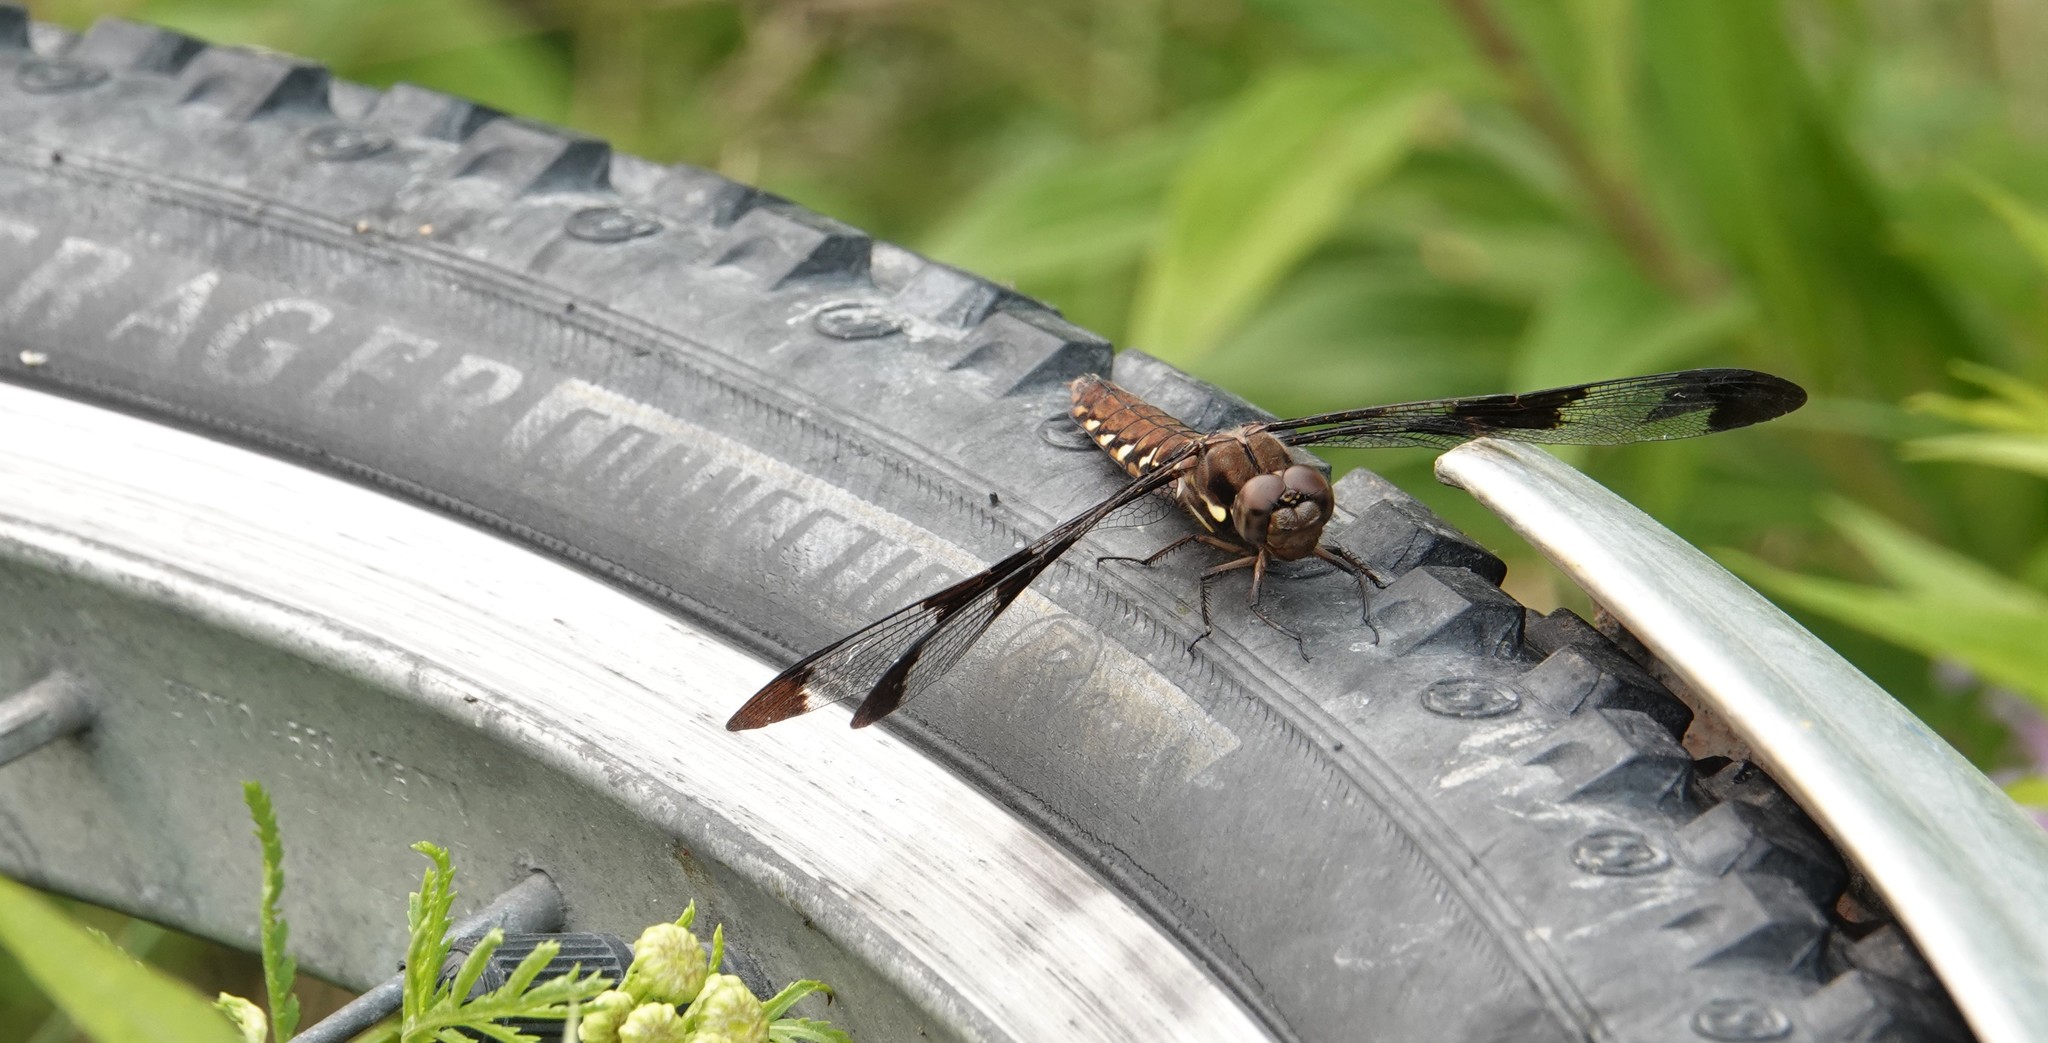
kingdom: Animalia
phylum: Arthropoda
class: Insecta
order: Odonata
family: Libellulidae
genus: Plathemis
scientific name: Plathemis lydia
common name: Common whitetail
